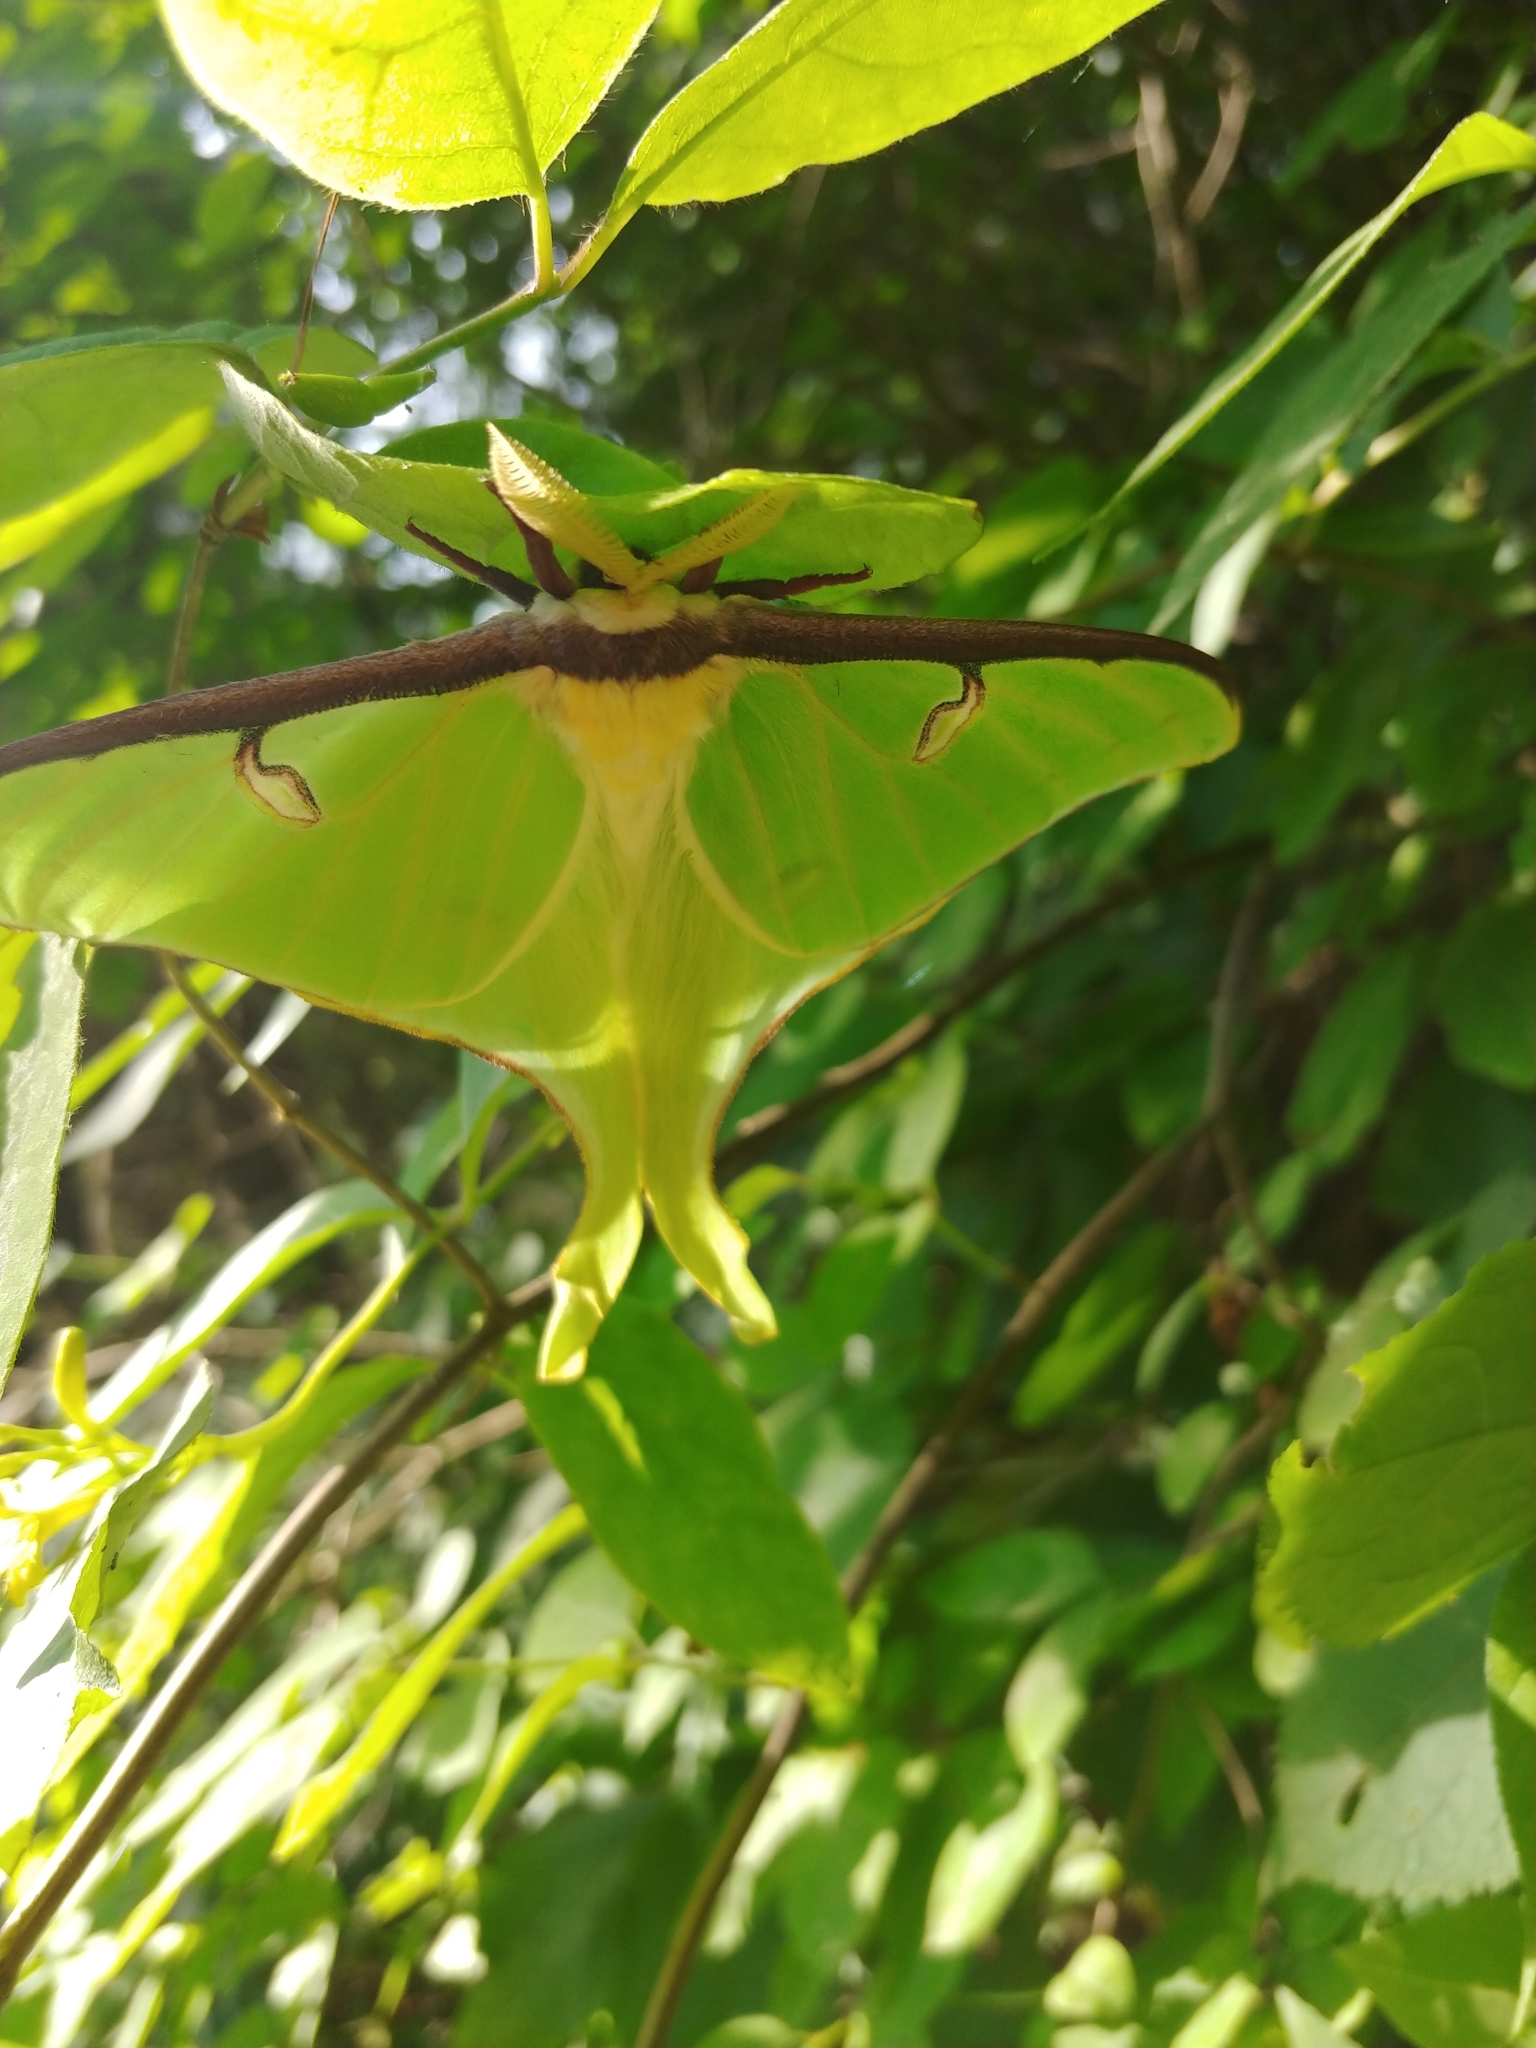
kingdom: Animalia
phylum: Arthropoda
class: Insecta
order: Lepidoptera
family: Saturniidae
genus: Actias
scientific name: Actias luna
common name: Luna moth
